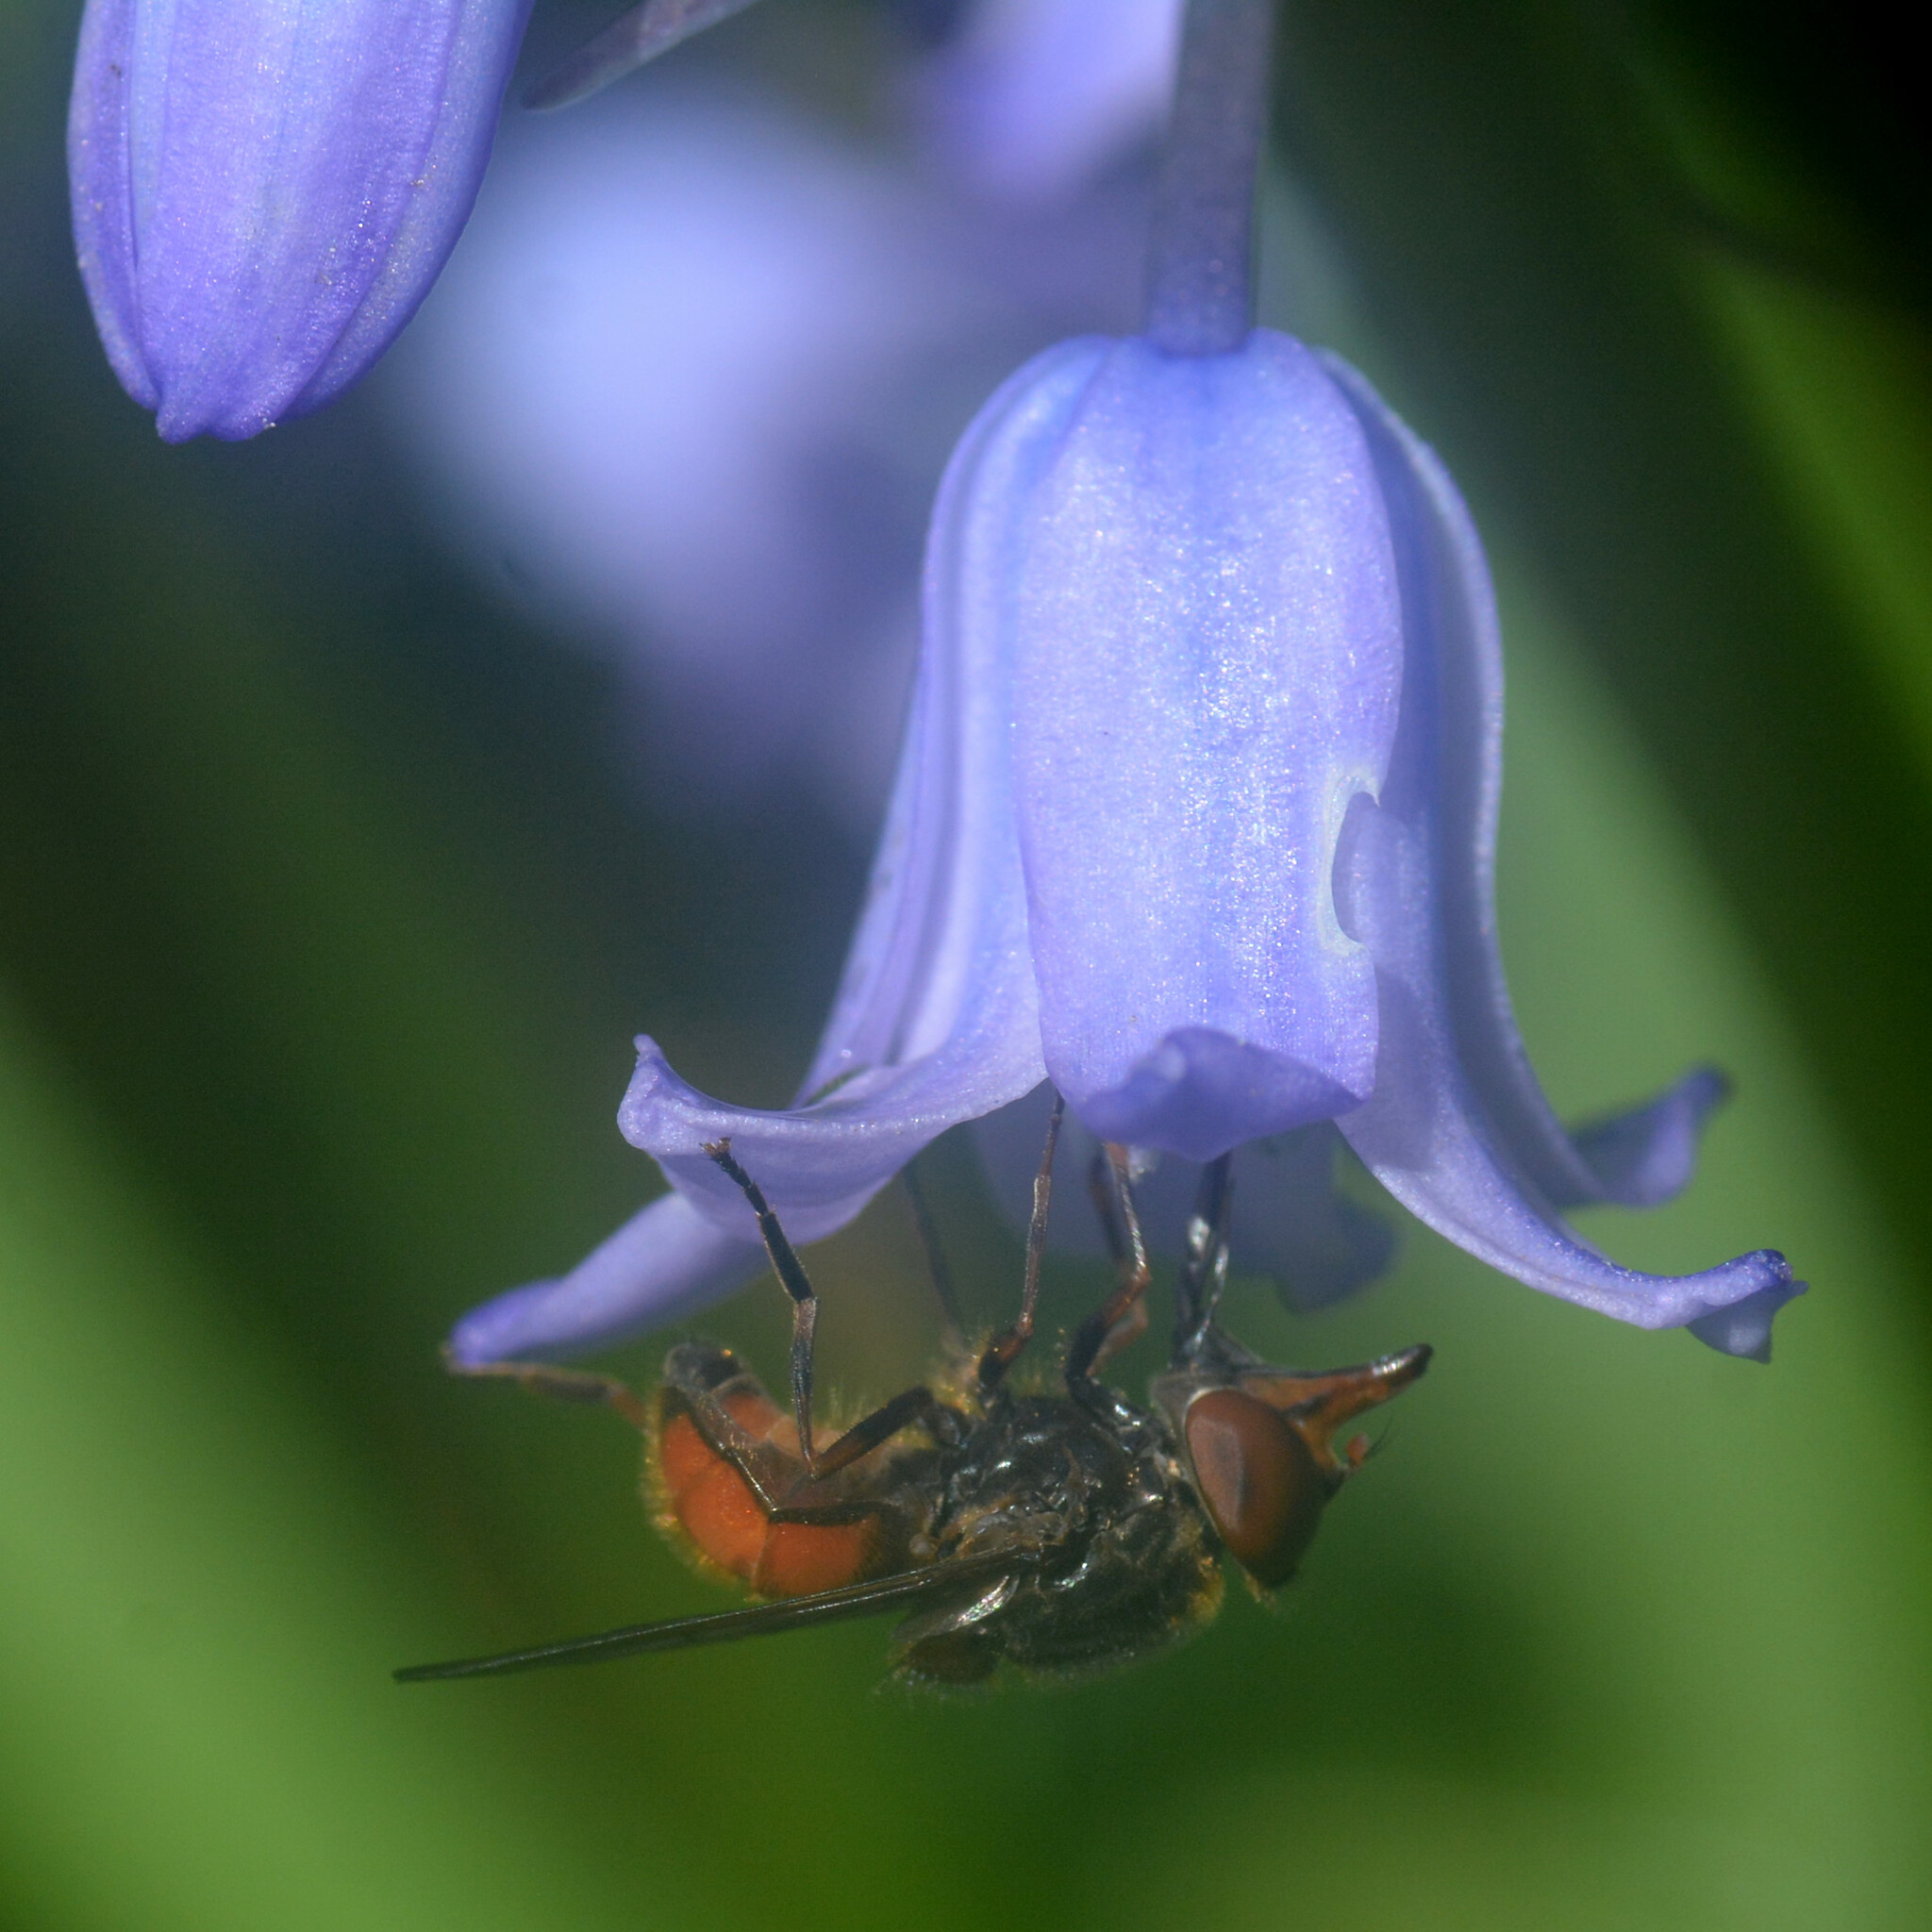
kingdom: Animalia
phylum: Arthropoda
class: Insecta
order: Diptera
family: Syrphidae
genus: Rhingia
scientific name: Rhingia campestris
